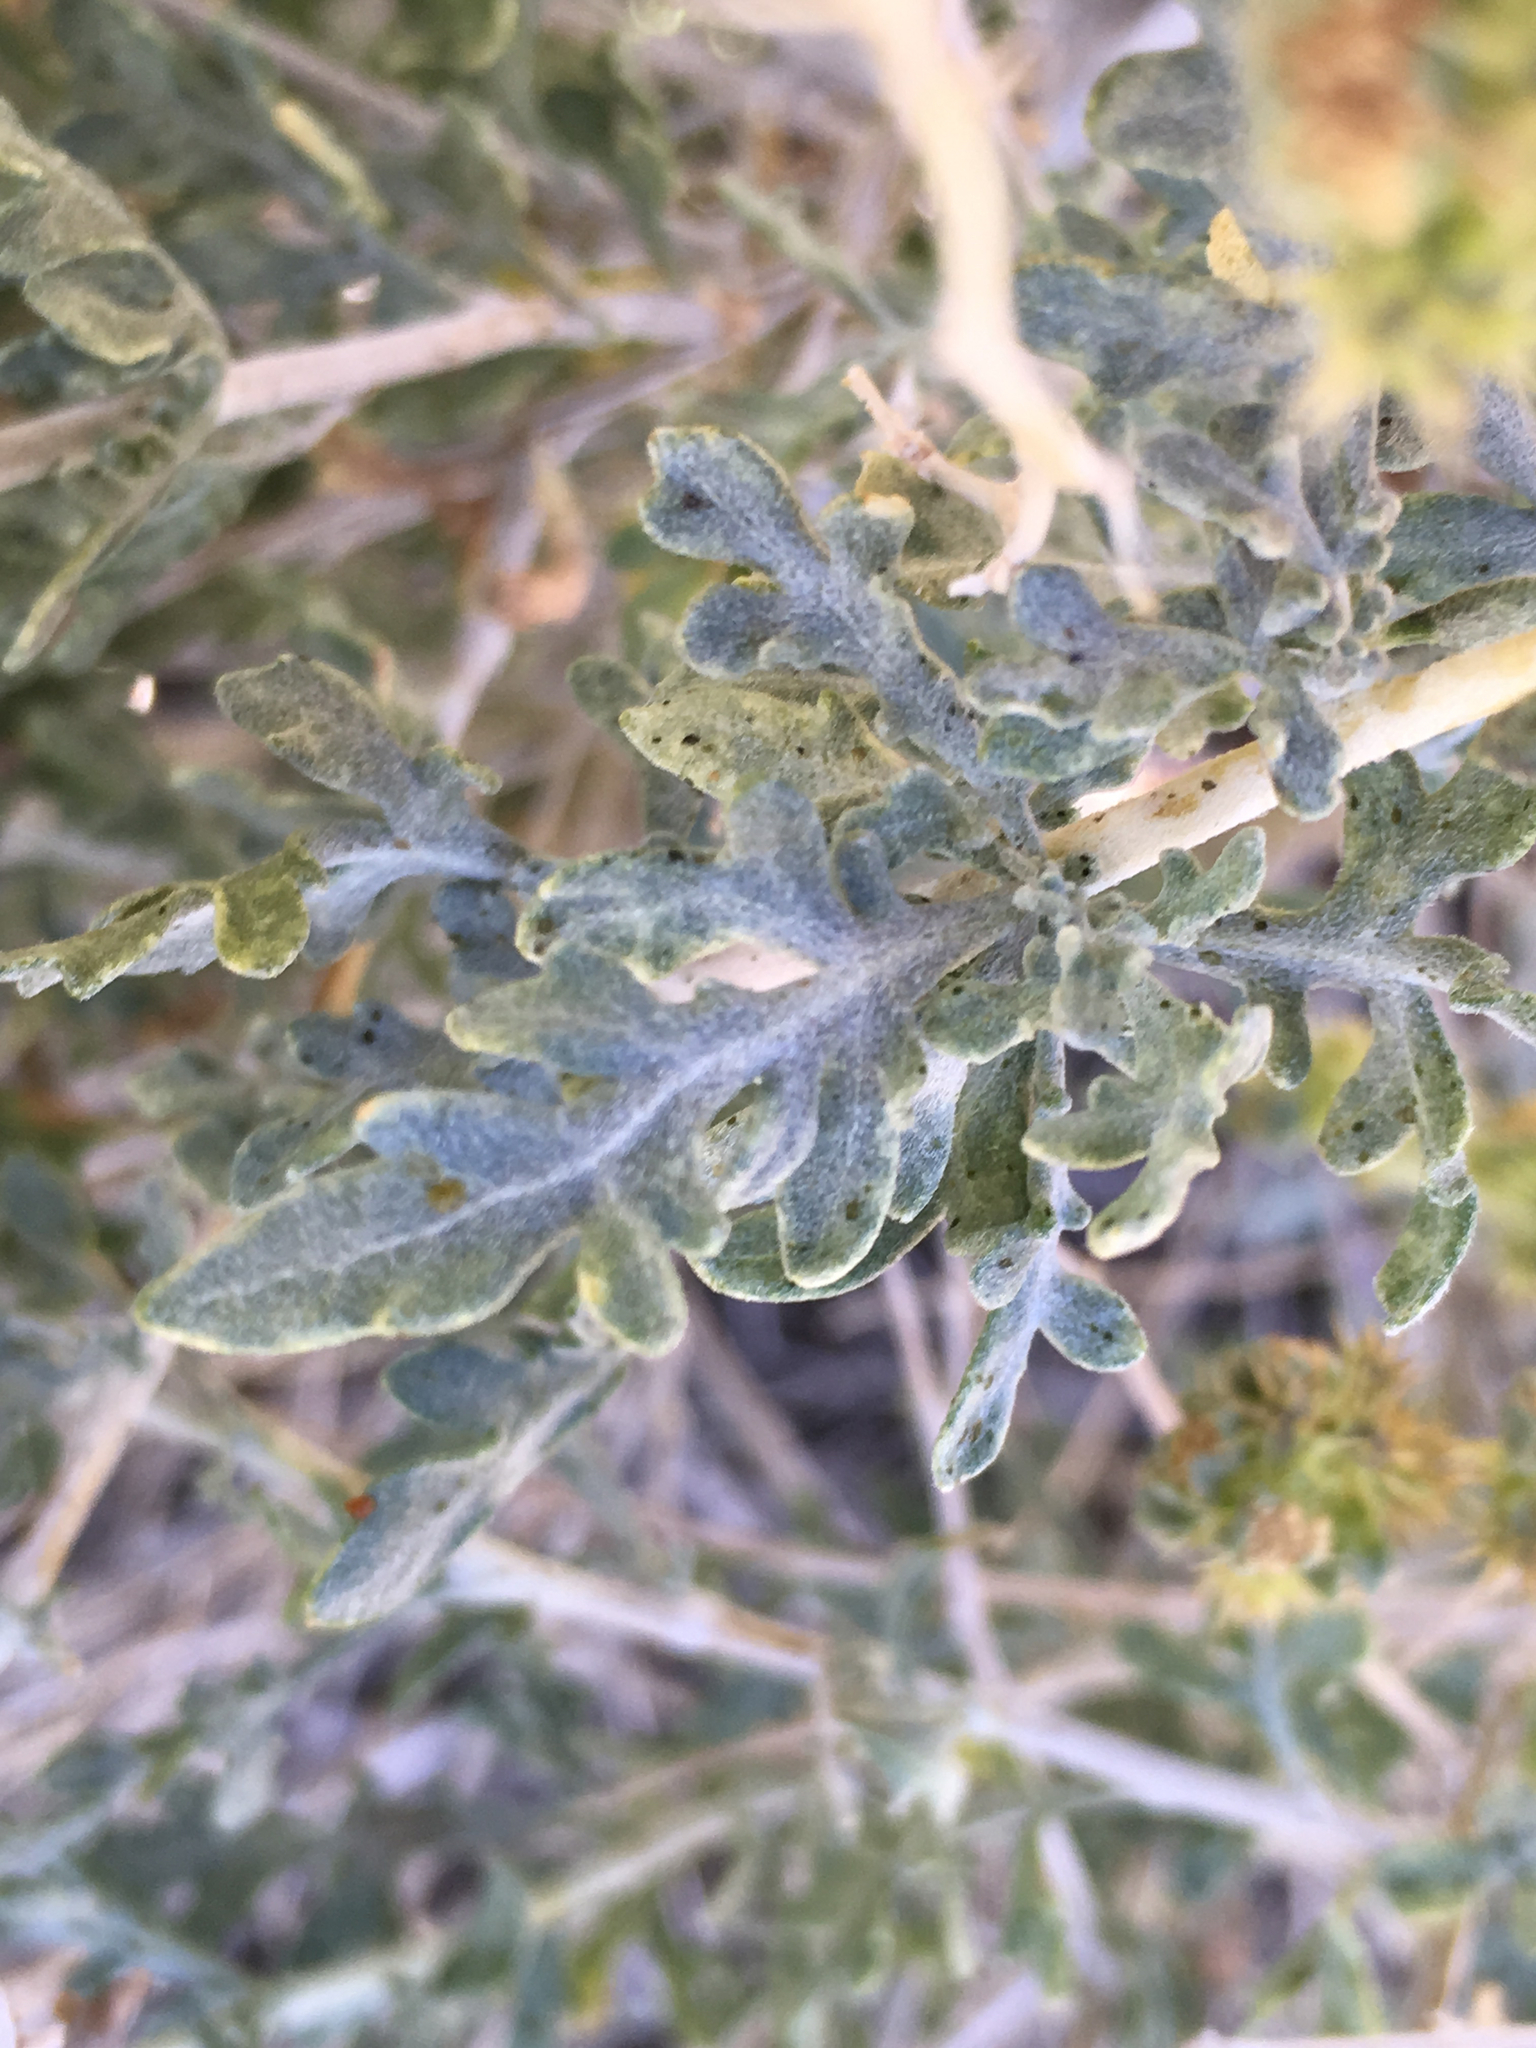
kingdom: Plantae
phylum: Tracheophyta
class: Magnoliopsida
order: Asterales
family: Asteraceae
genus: Ambrosia
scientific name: Ambrosia dumosa
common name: Bur-sage
